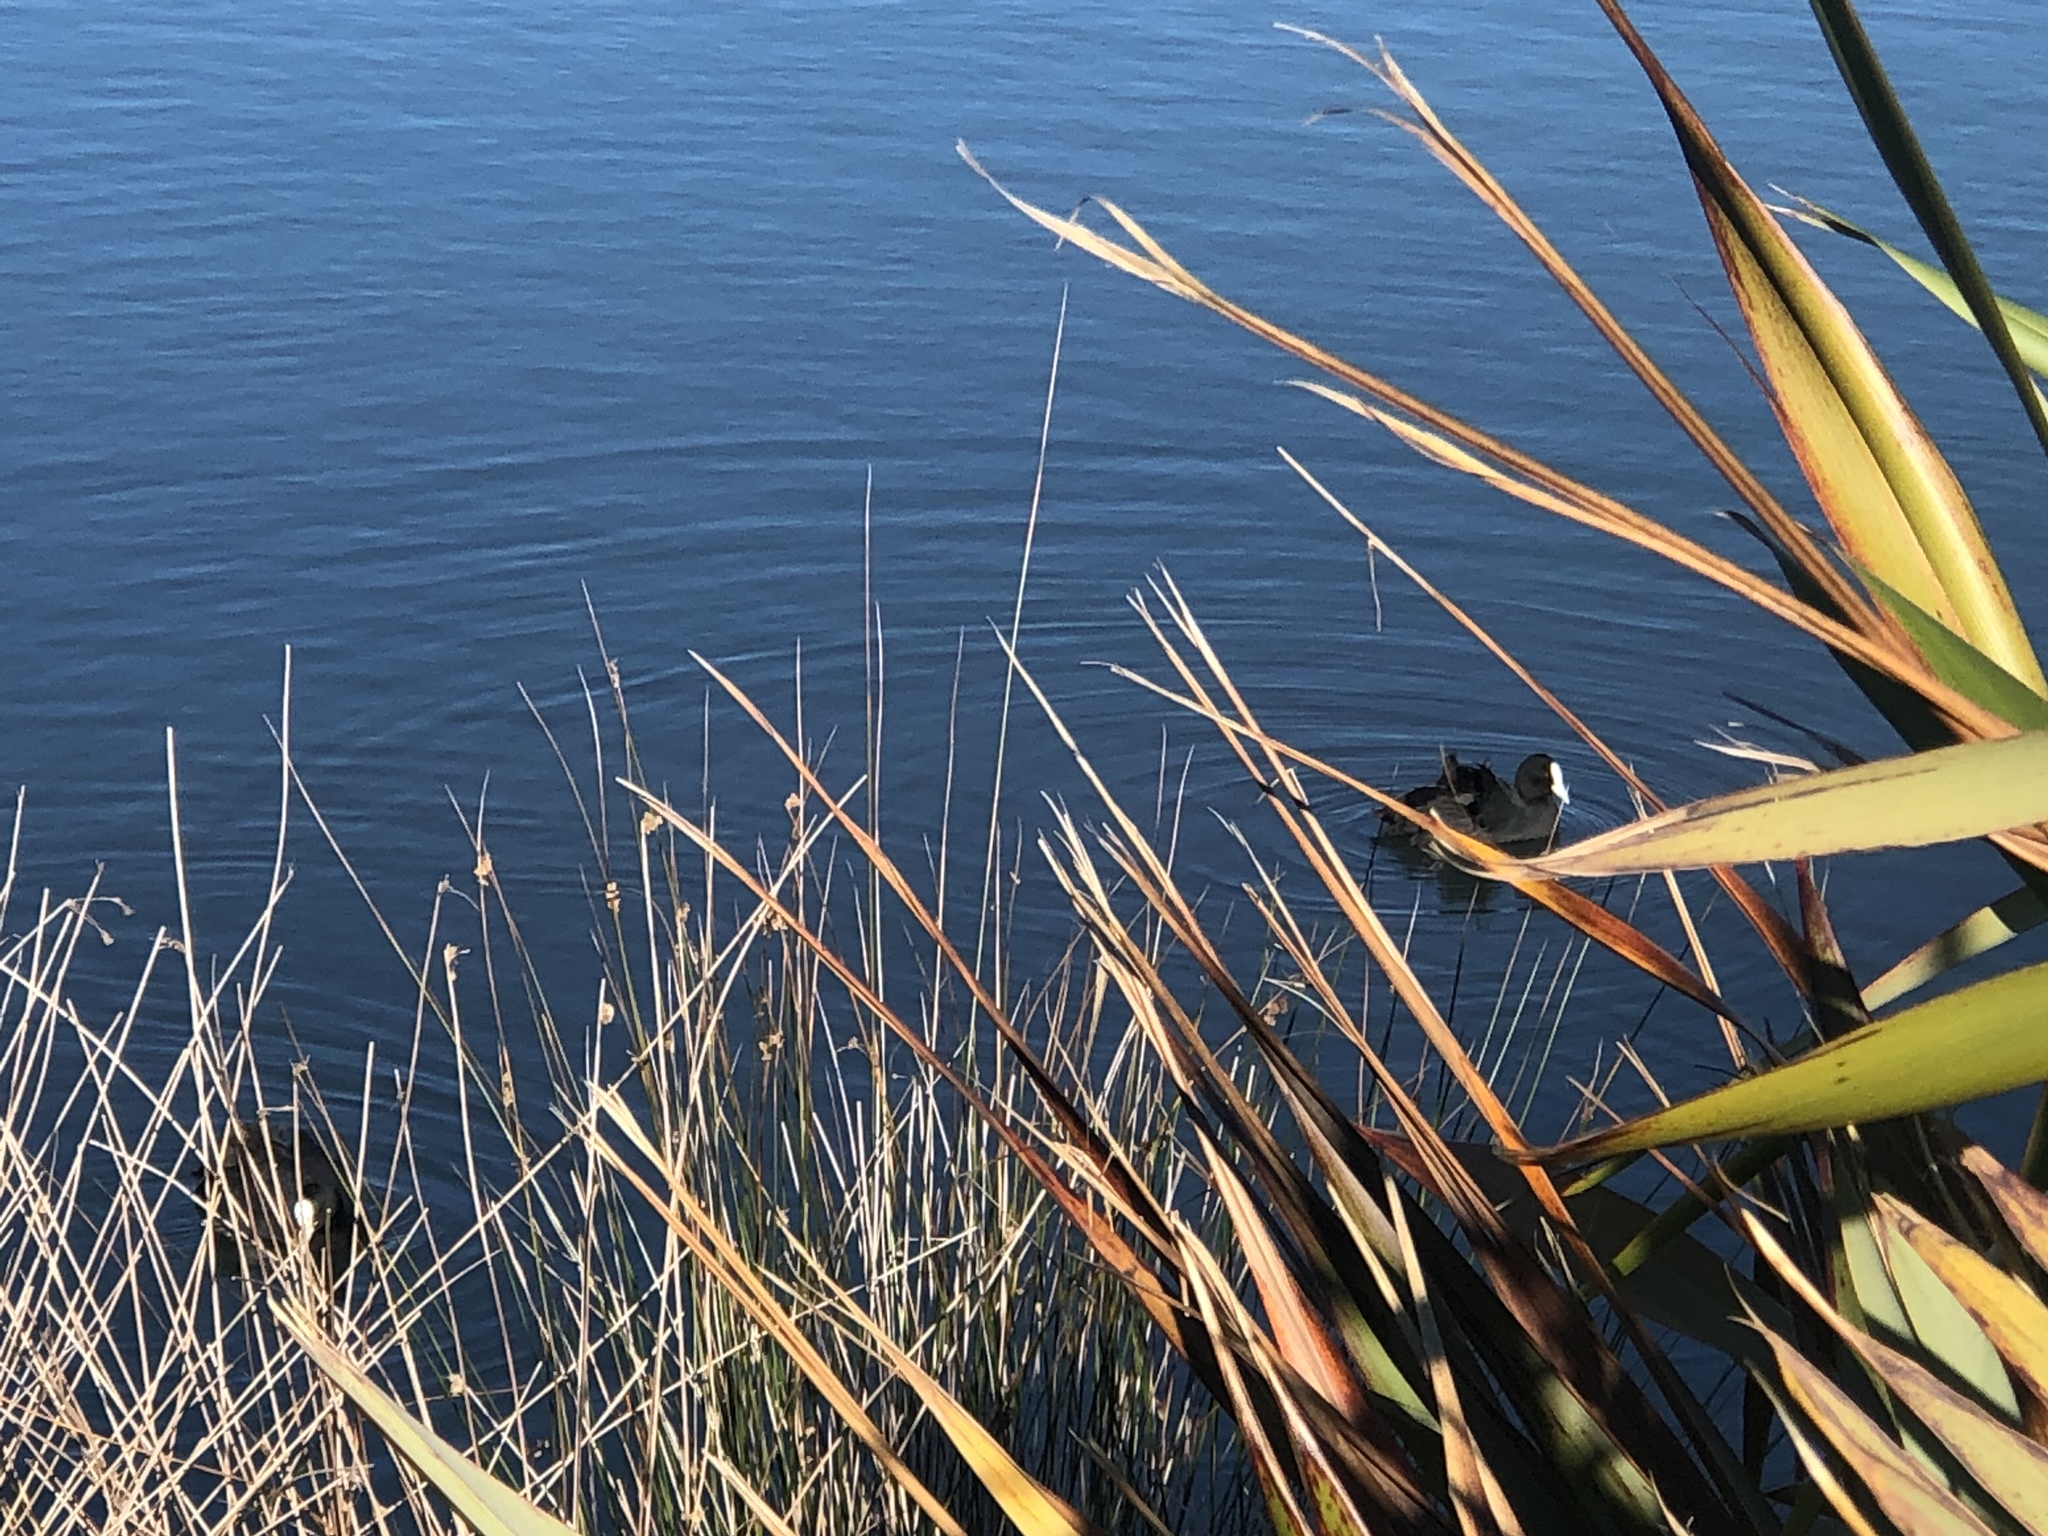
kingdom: Animalia
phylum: Chordata
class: Aves
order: Gruiformes
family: Rallidae
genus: Fulica
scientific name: Fulica atra
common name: Eurasian coot
